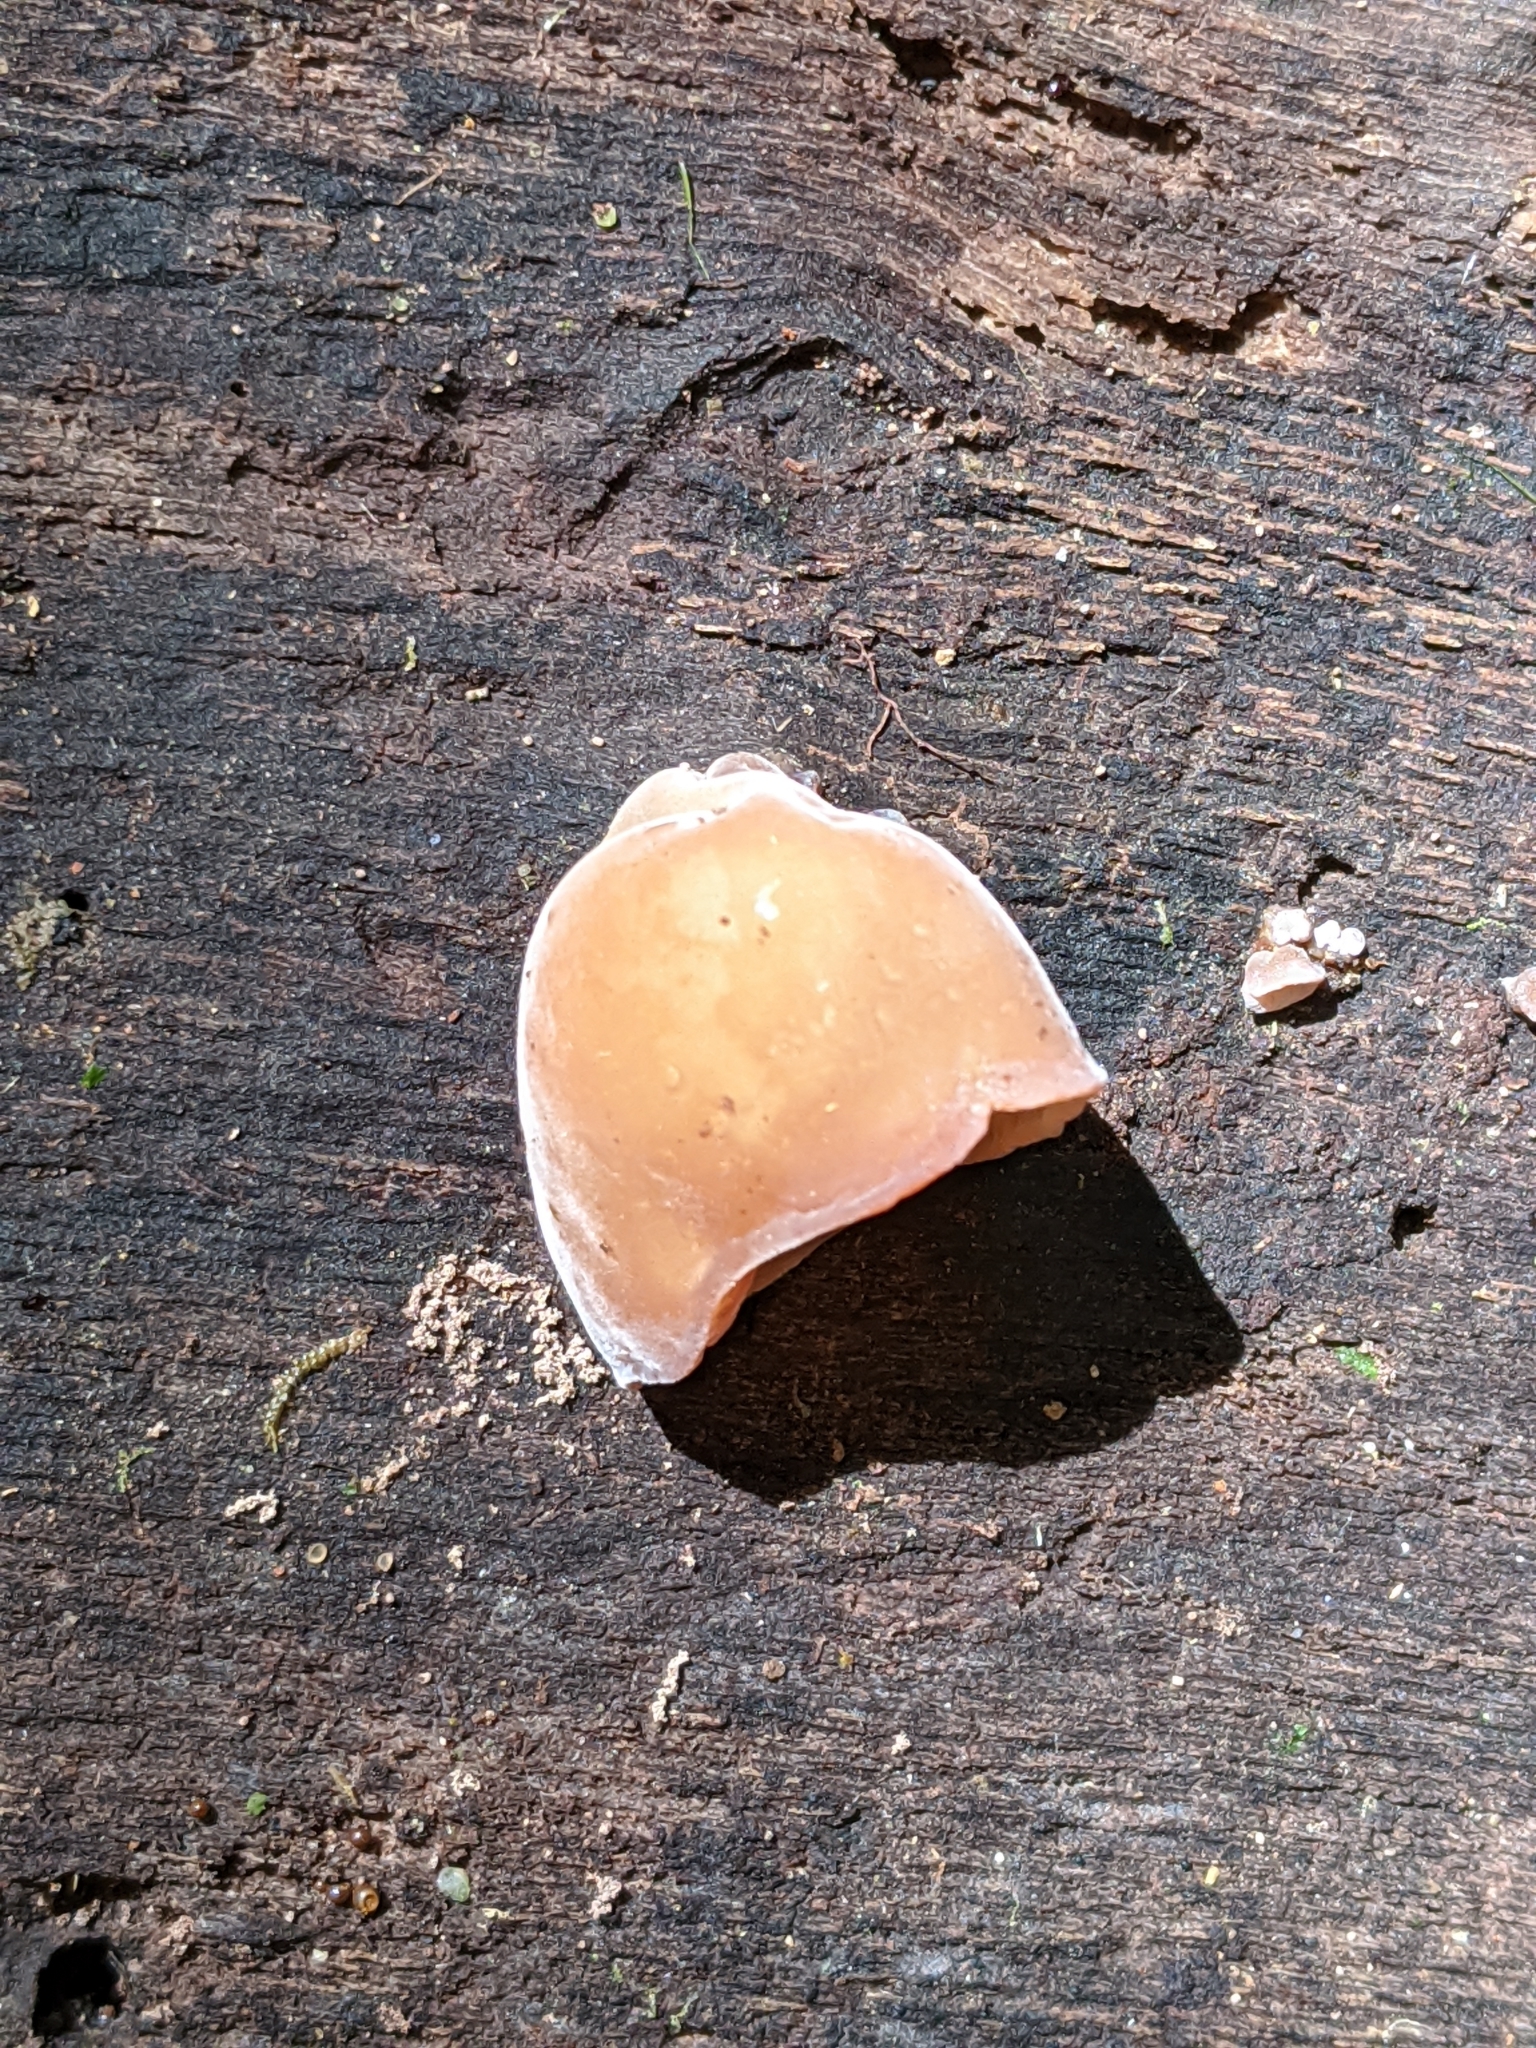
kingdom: Fungi
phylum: Basidiomycota
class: Agaricomycetes
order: Auriculariales
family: Auriculariaceae
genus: Auricularia
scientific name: Auricularia delicata
